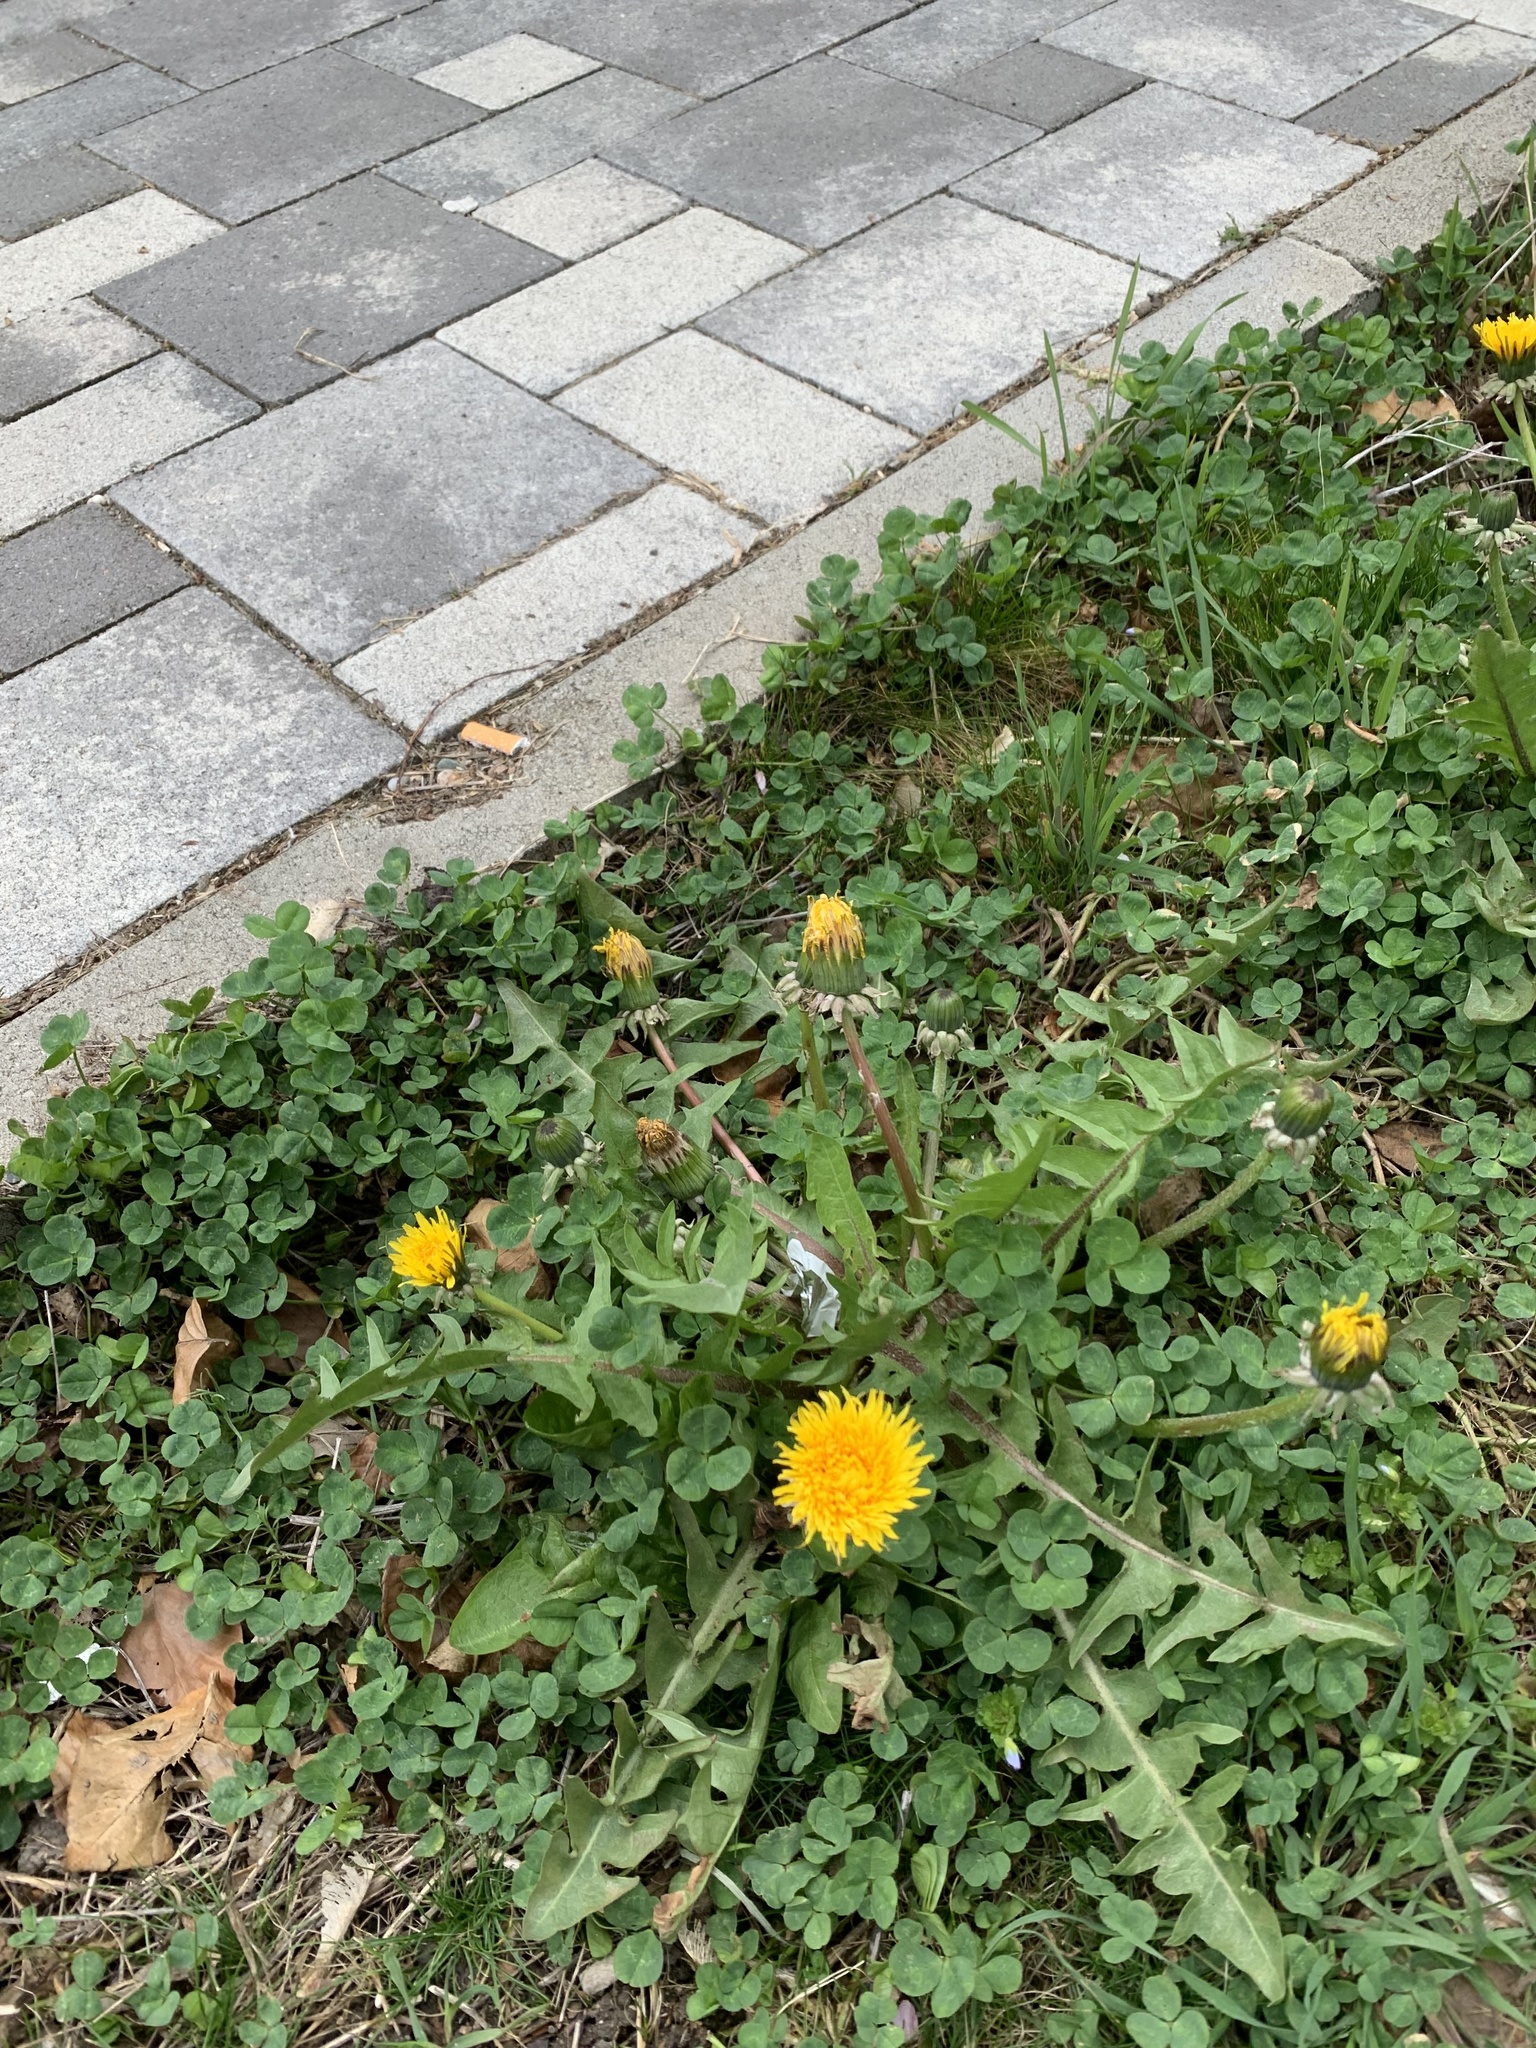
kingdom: Plantae
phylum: Tracheophyta
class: Magnoliopsida
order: Asterales
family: Asteraceae
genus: Taraxacum
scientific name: Taraxacum officinale
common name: Common dandelion
